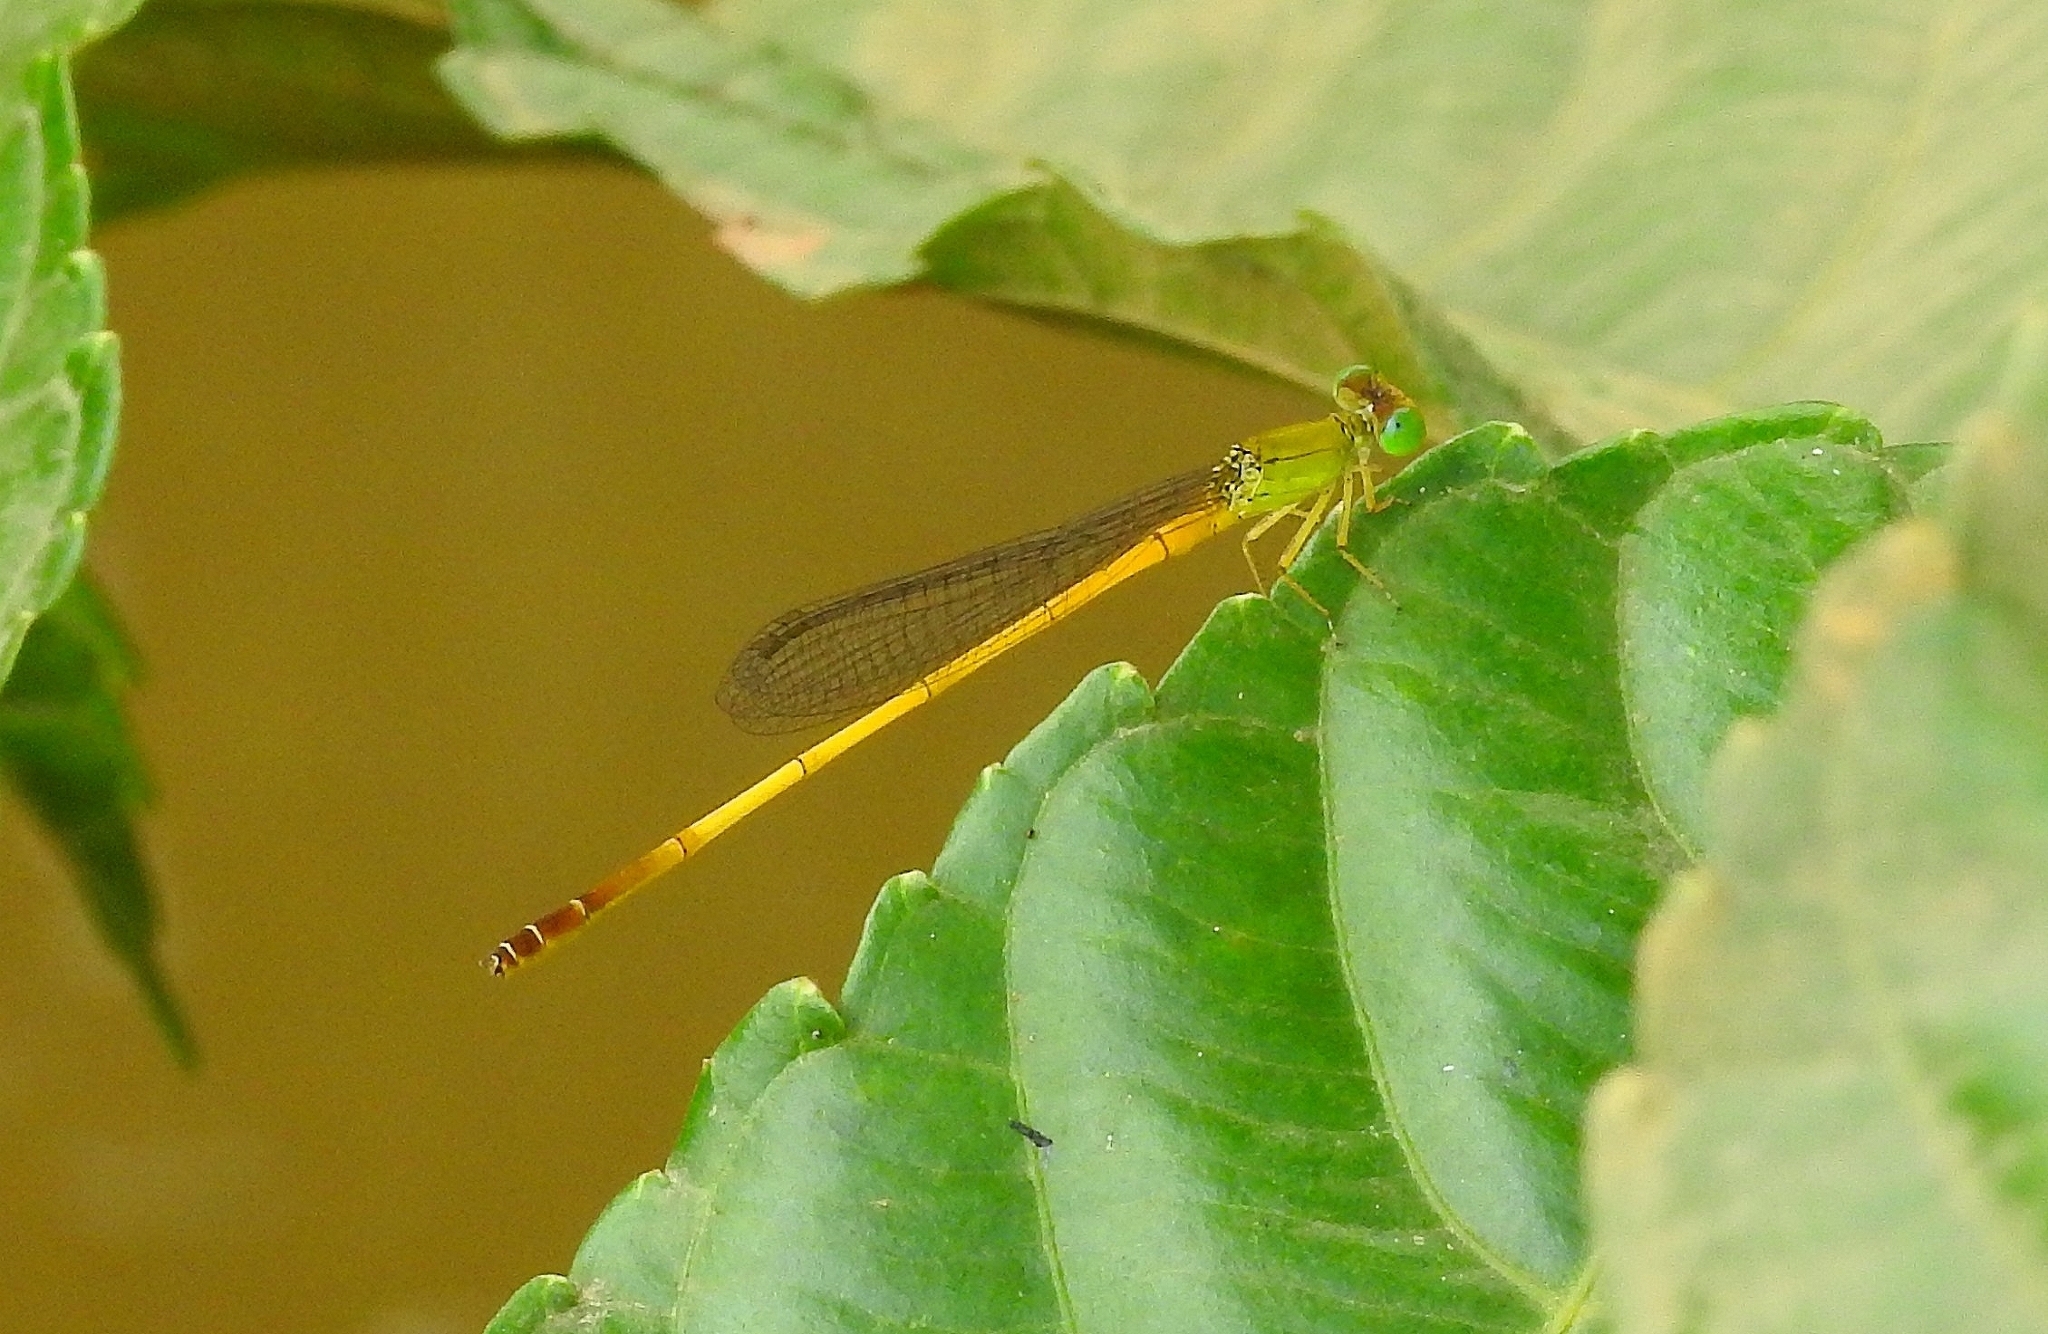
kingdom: Animalia
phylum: Arthropoda
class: Insecta
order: Odonata
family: Coenagrionidae
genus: Ceriagrion
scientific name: Ceriagrion chromothorax
